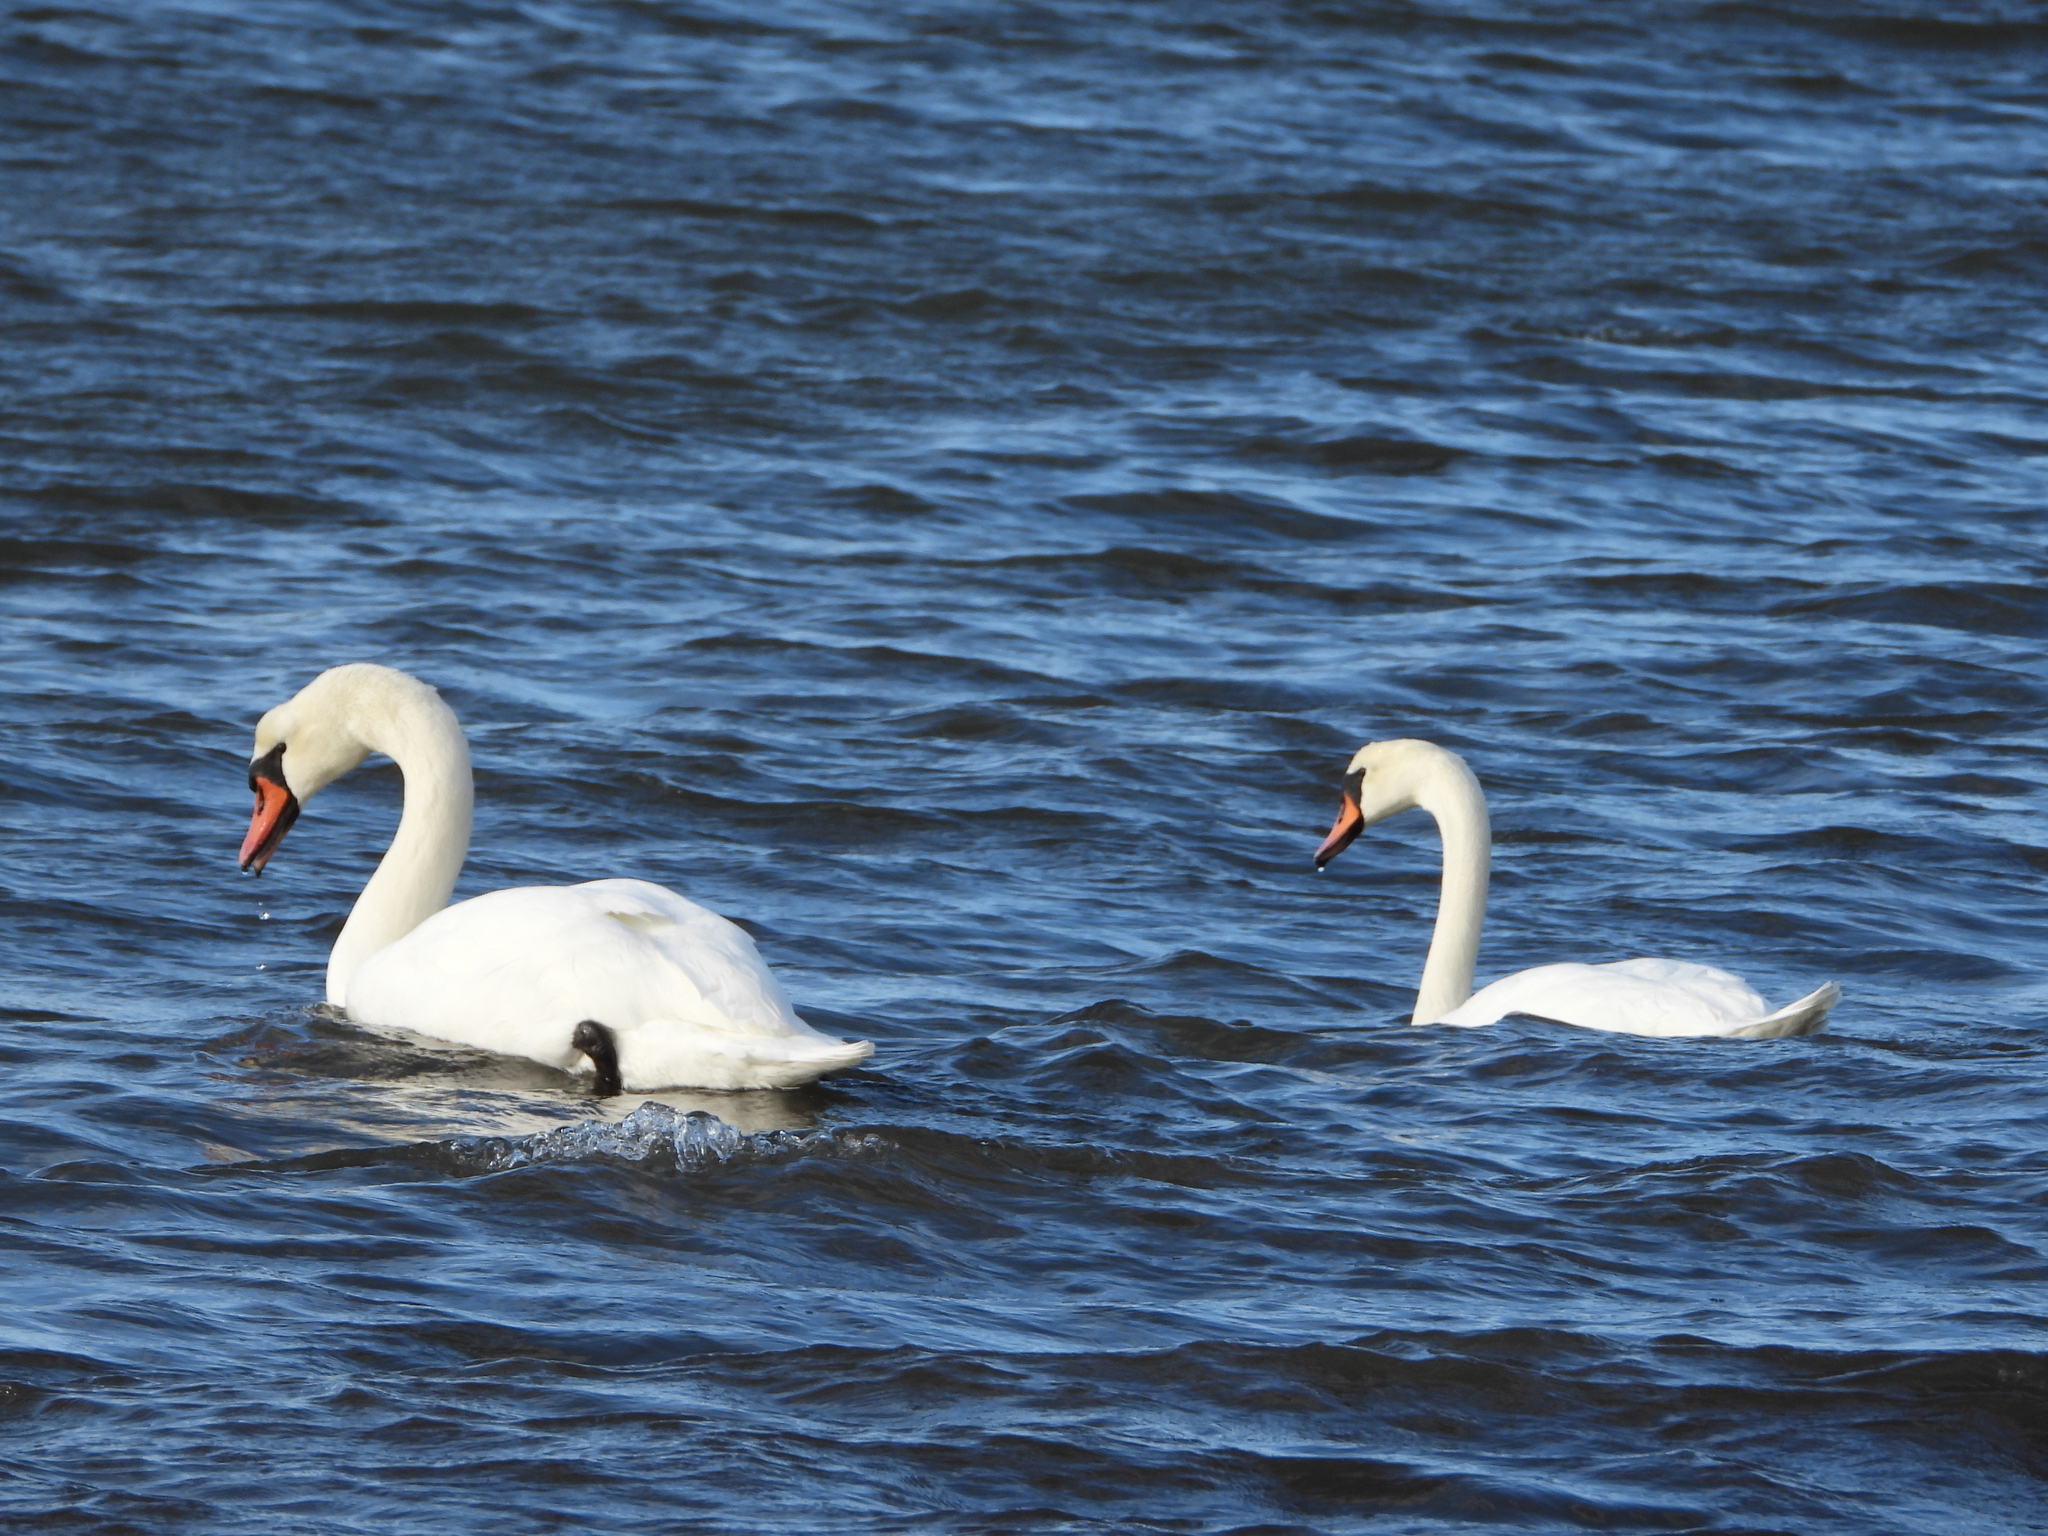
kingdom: Animalia
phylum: Chordata
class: Aves
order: Anseriformes
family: Anatidae
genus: Cygnus
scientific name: Cygnus olor
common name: Mute swan
